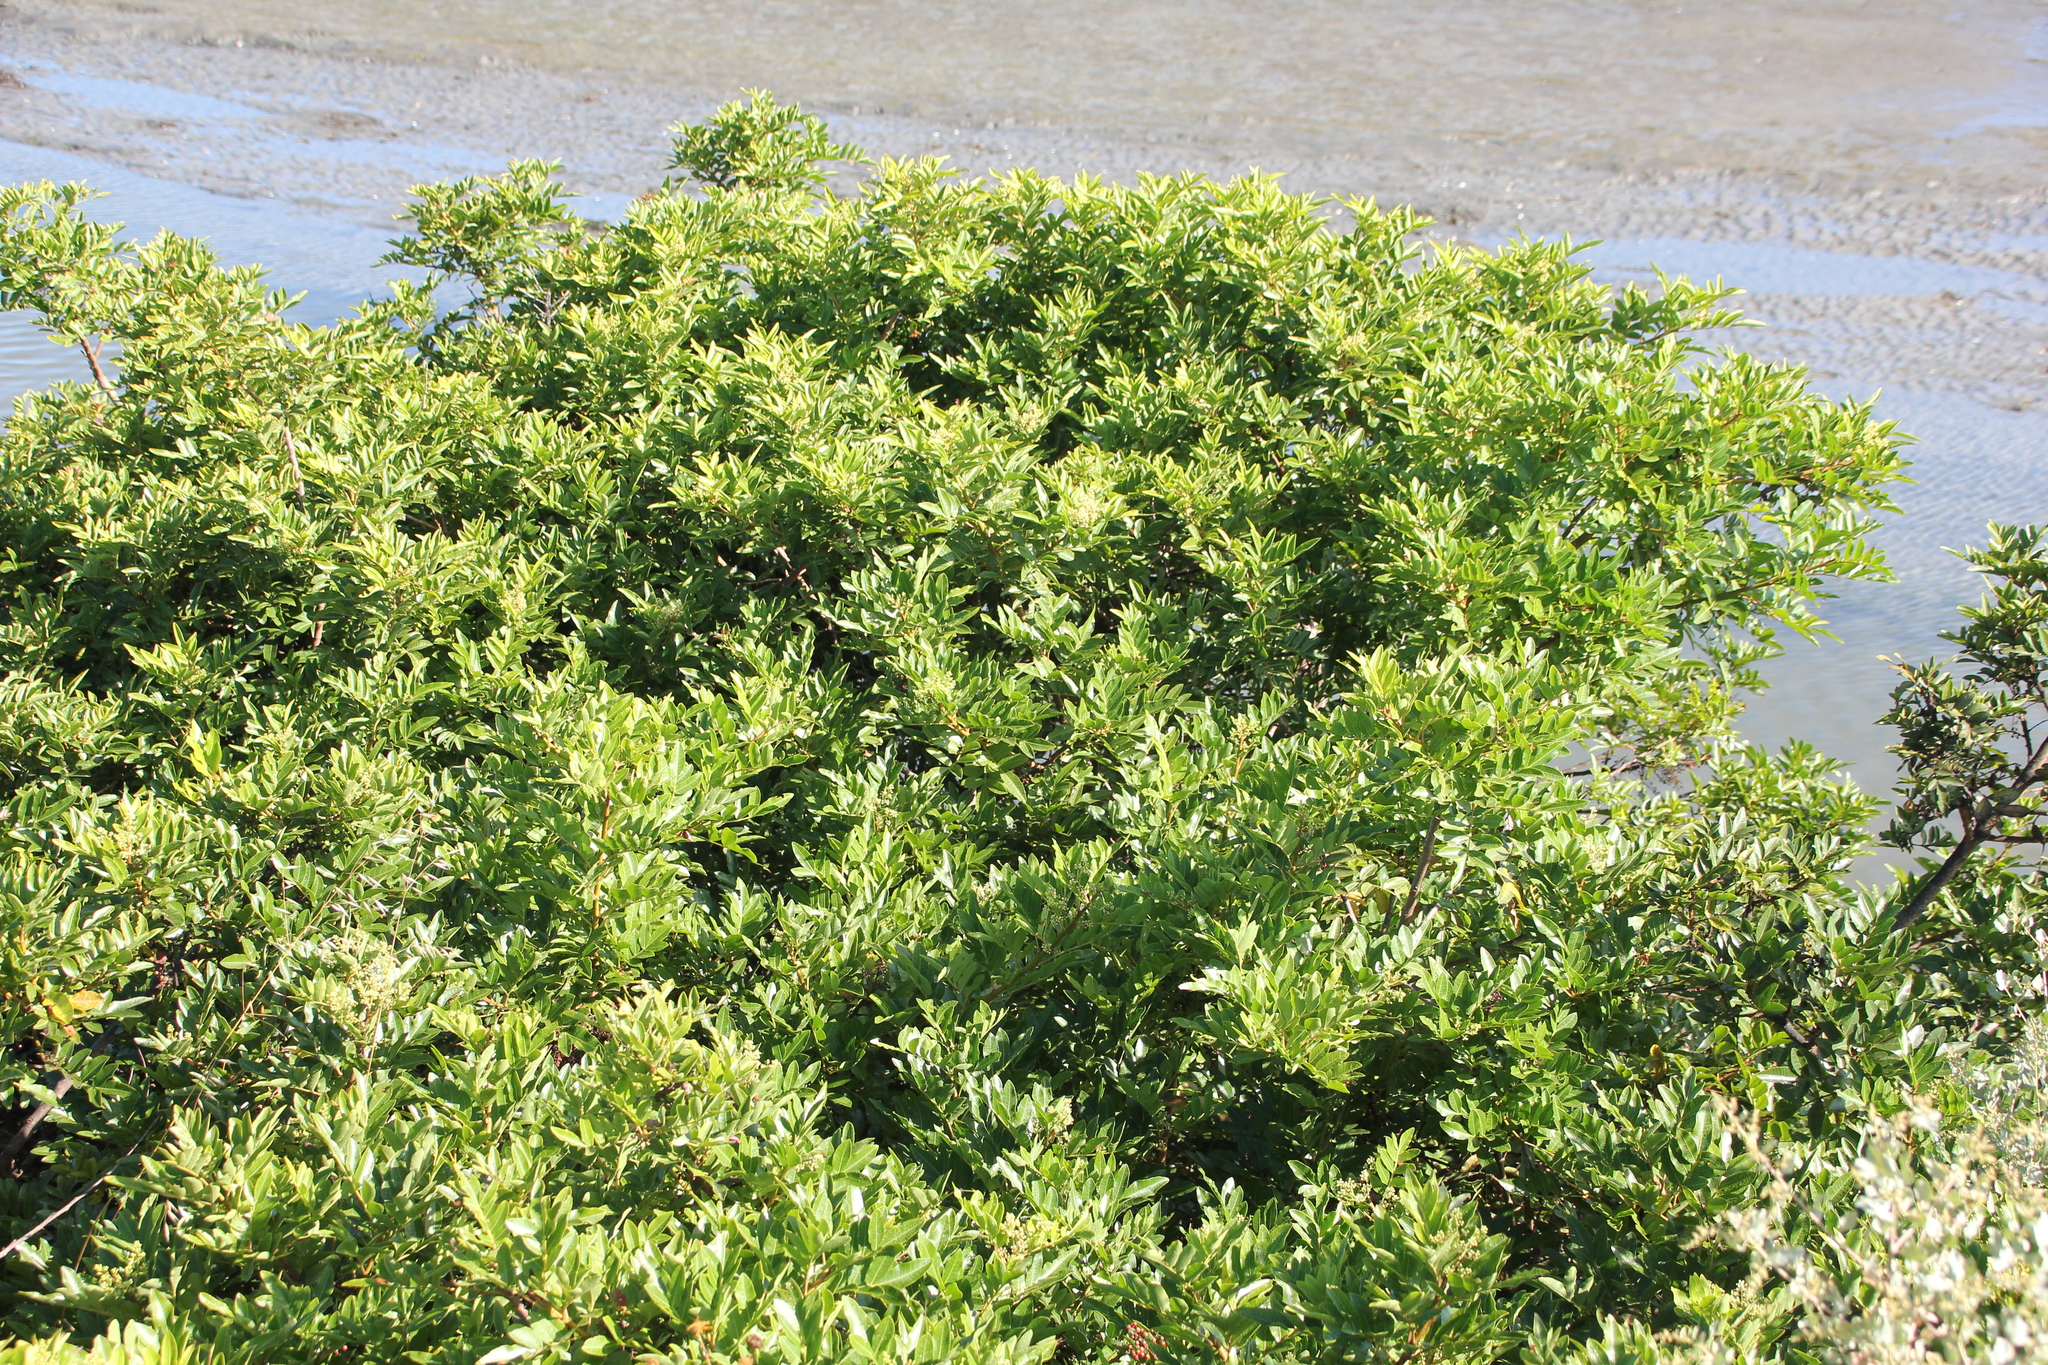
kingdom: Plantae
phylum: Tracheophyta
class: Magnoliopsida
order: Sapindales
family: Anacardiaceae
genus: Schinus
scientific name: Schinus terebinthifolia
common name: Brazilian peppertree
